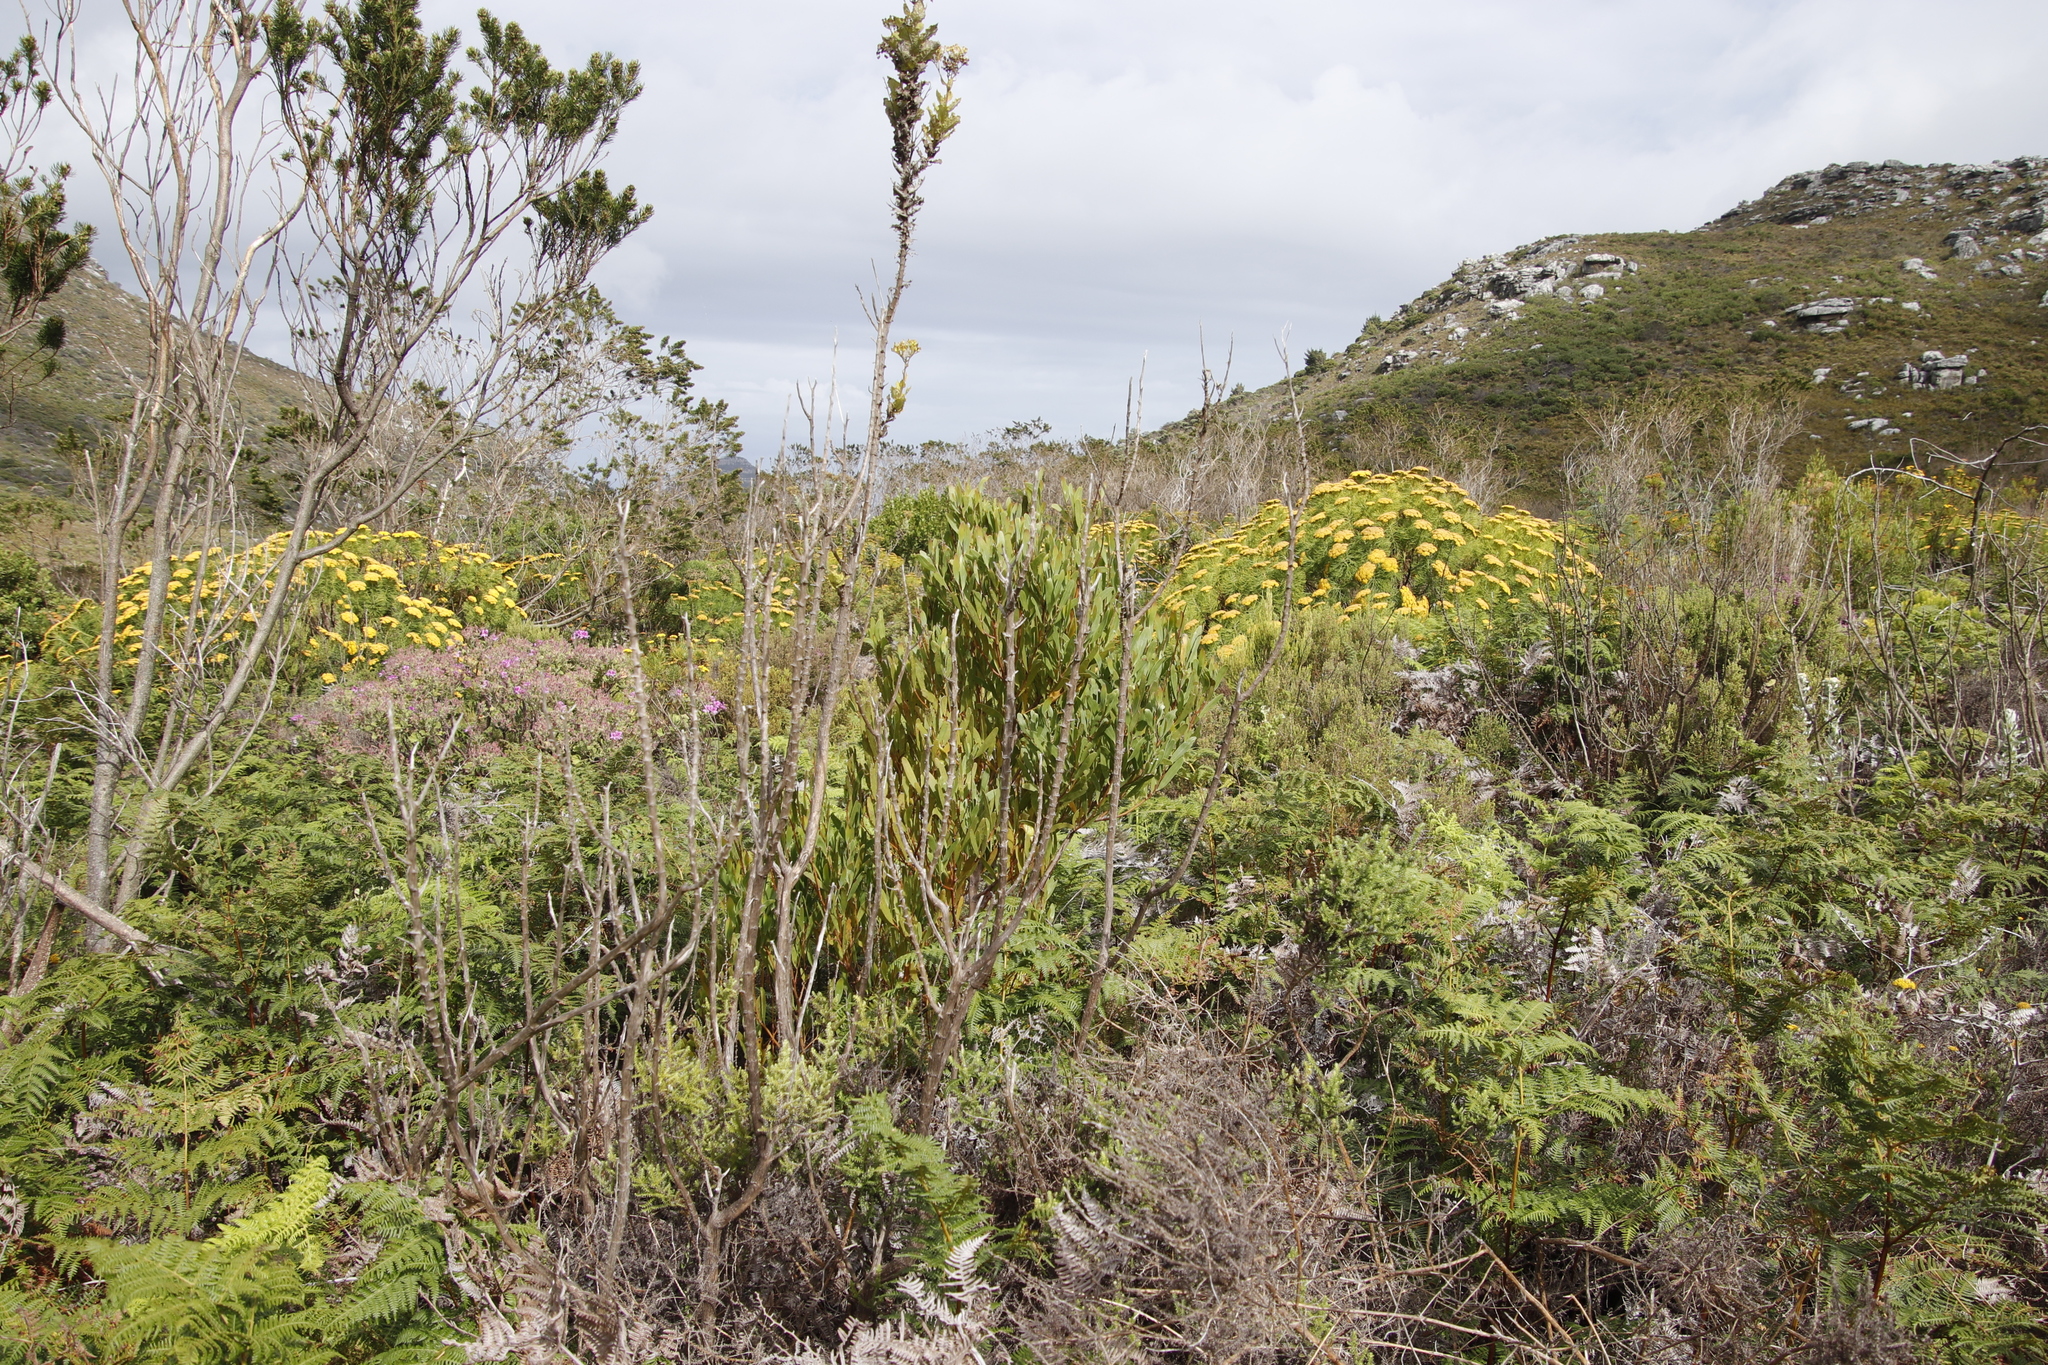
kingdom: Plantae
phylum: Tracheophyta
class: Magnoliopsida
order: Fabales
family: Fabaceae
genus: Acacia
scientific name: Acacia melanoxylon
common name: Blackwood
